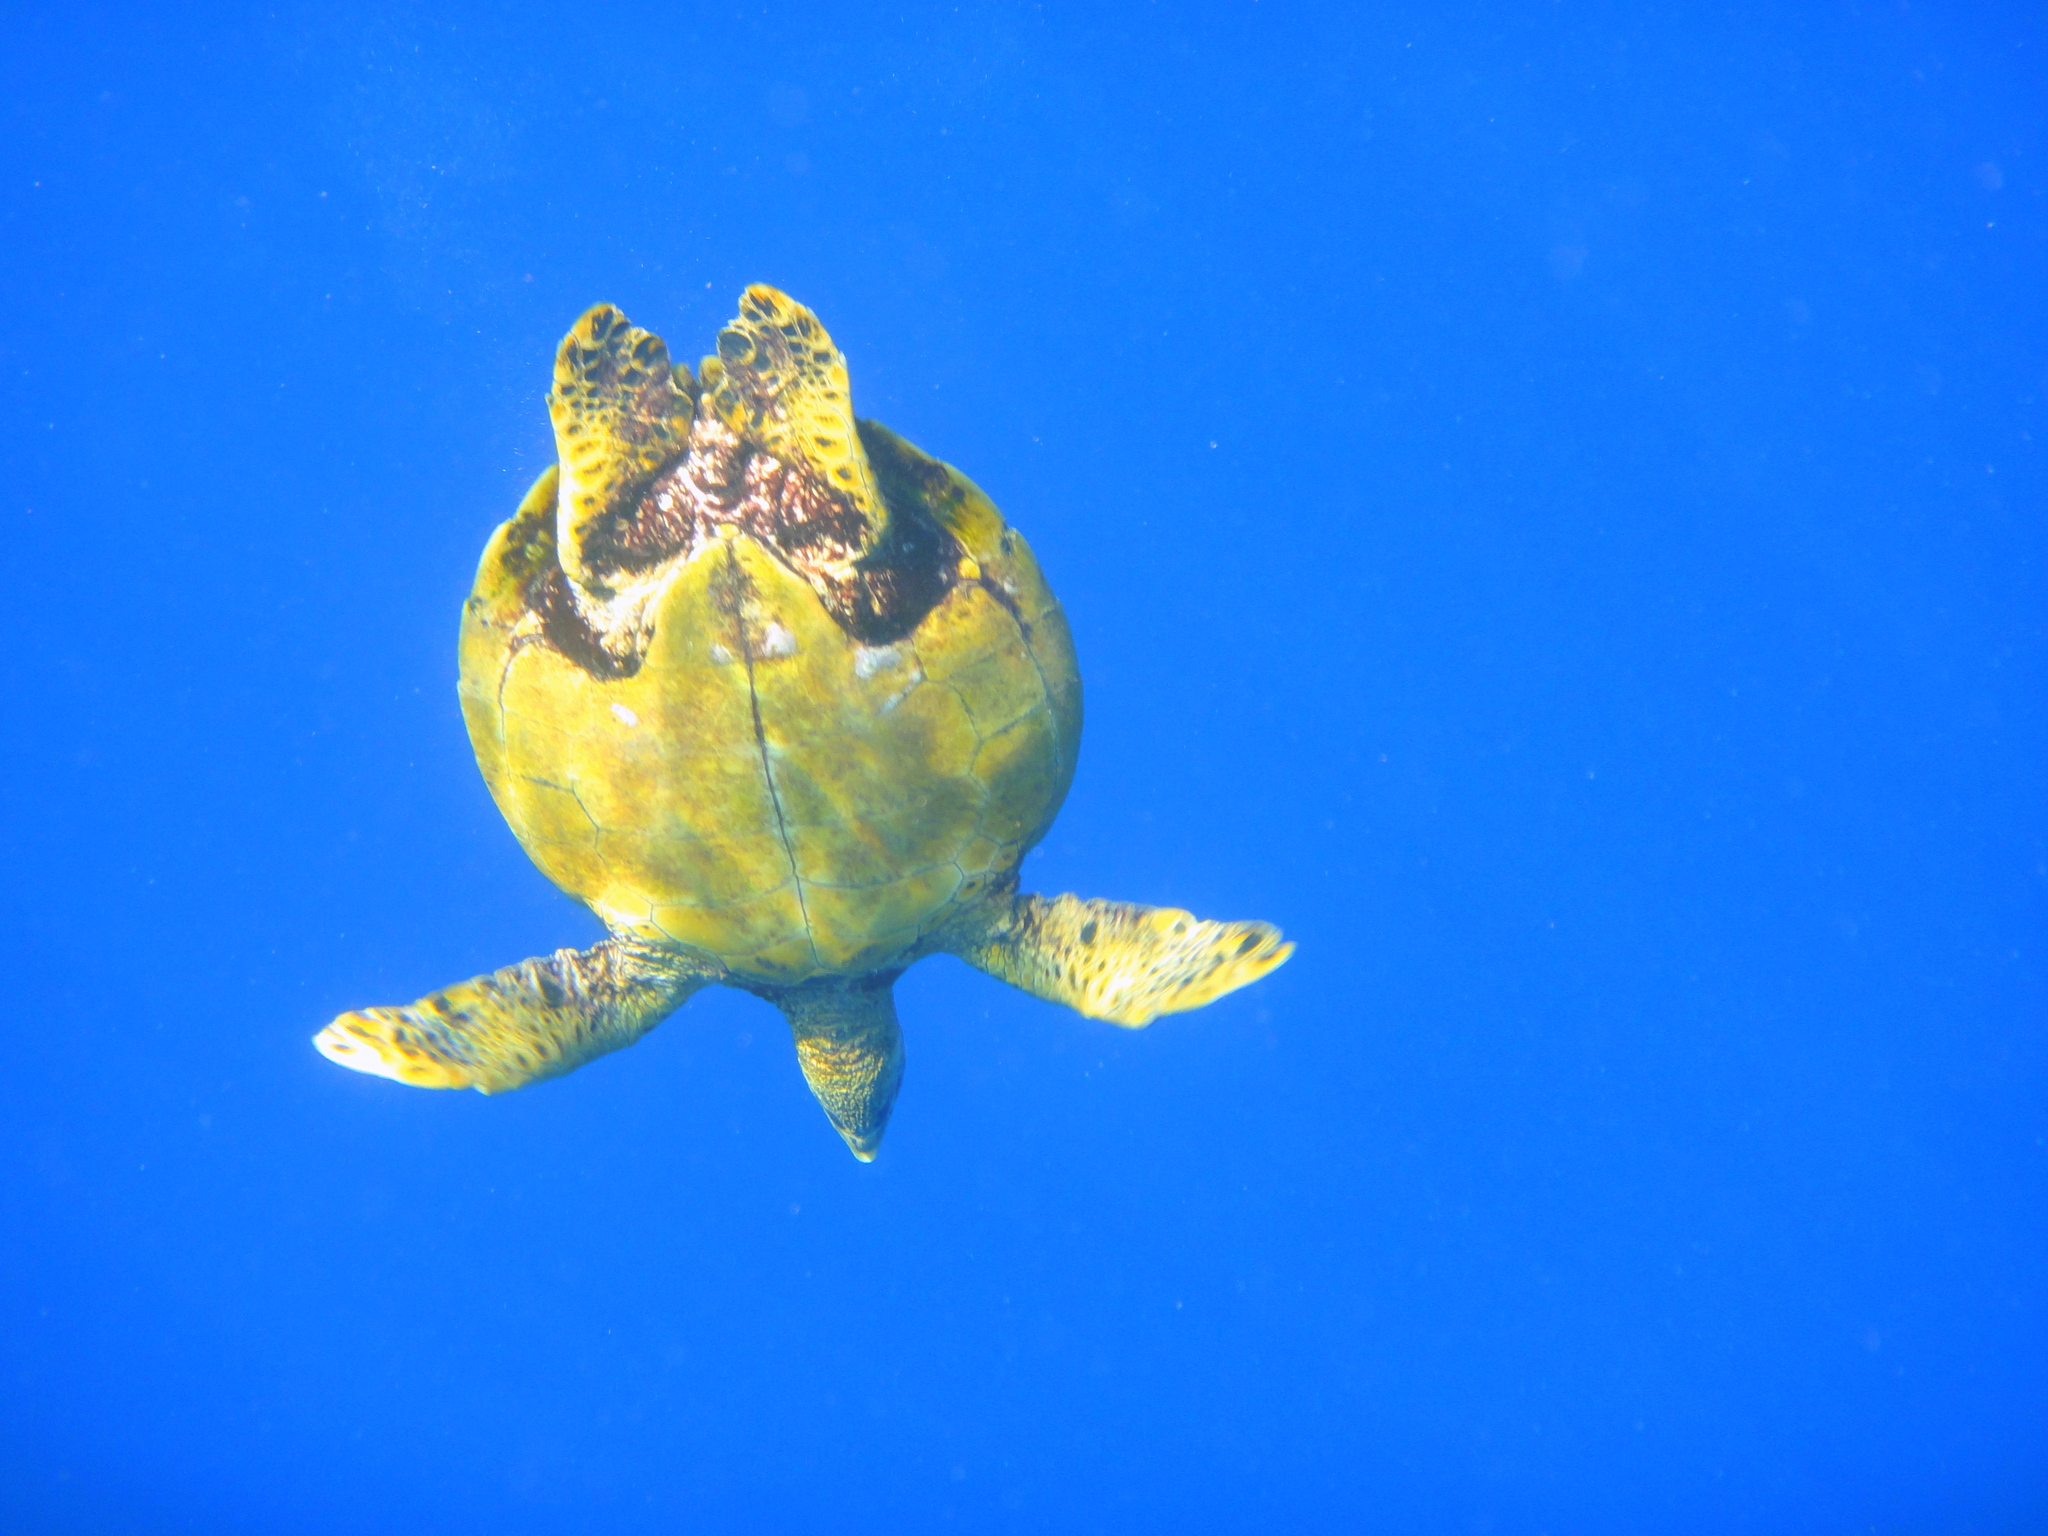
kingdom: Animalia
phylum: Chordata
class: Testudines
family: Cheloniidae
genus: Eretmochelys
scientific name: Eretmochelys imbricata
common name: Hawksbill turtle
